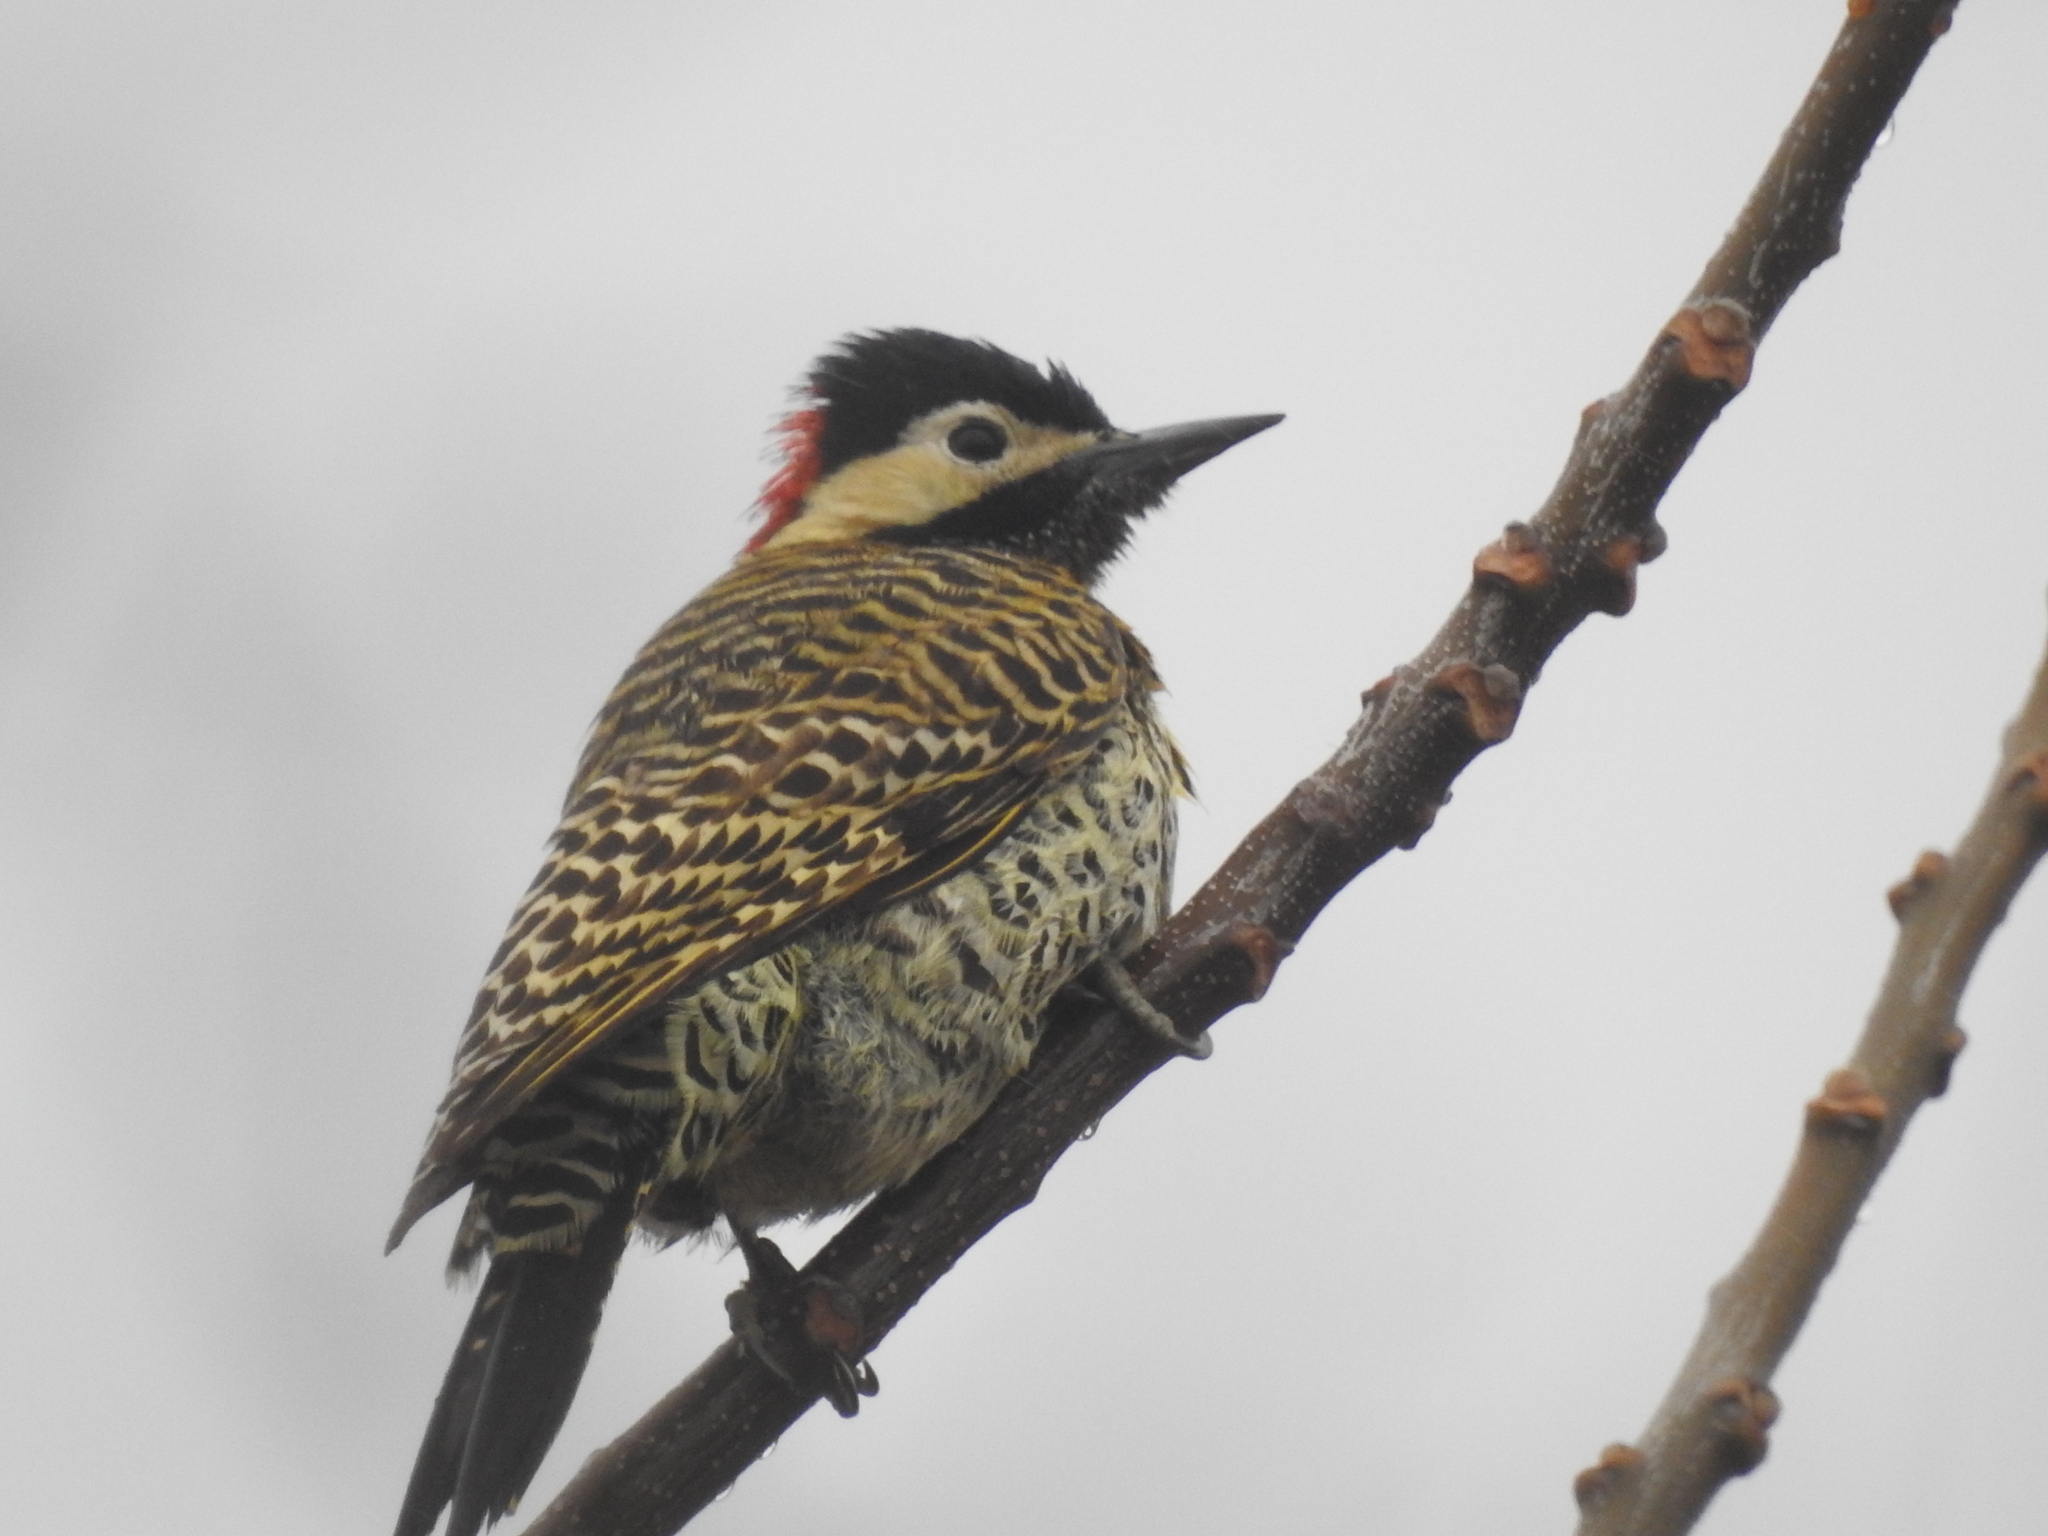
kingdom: Animalia
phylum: Chordata
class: Aves
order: Piciformes
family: Picidae
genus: Colaptes
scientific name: Colaptes melanochloros
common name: Green-barred woodpecker
